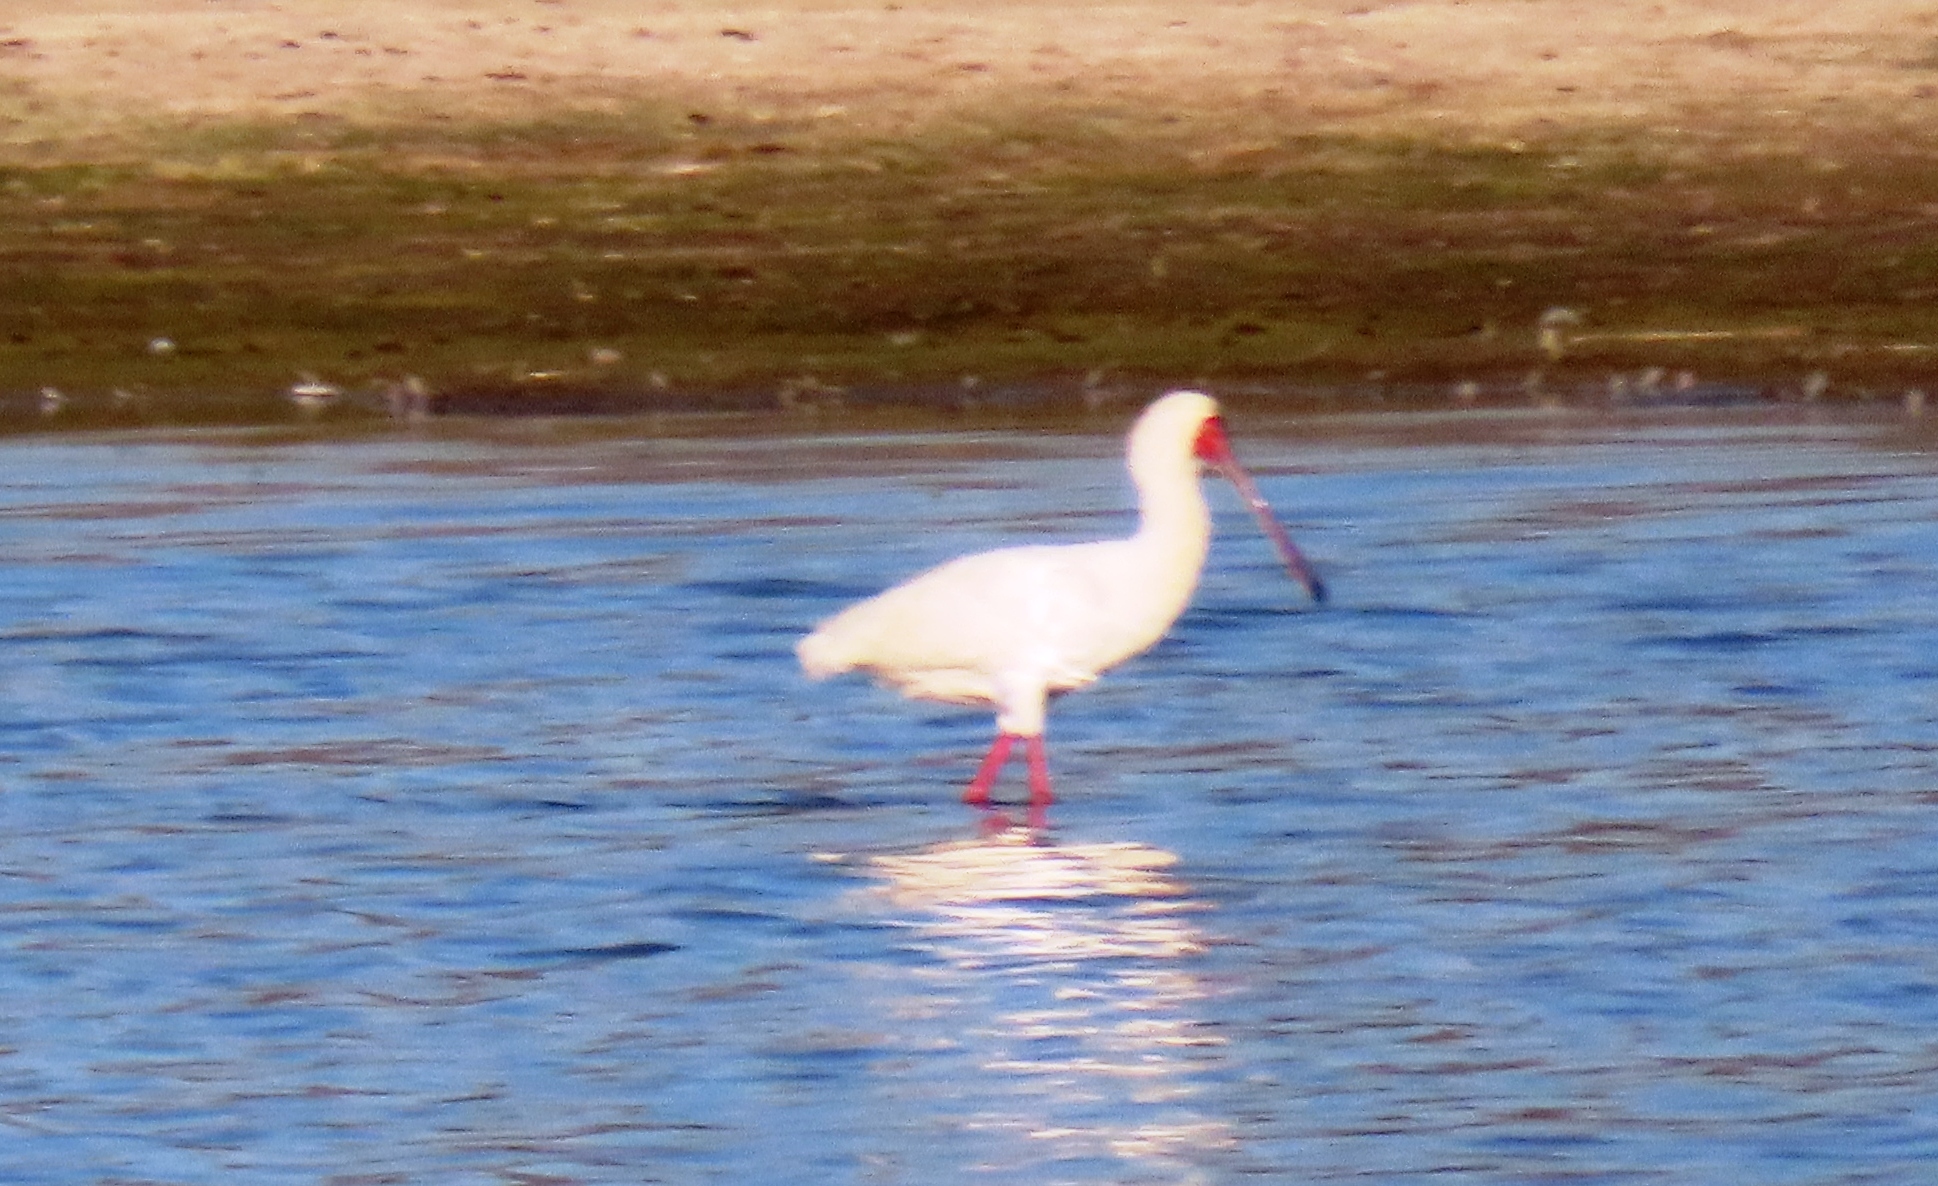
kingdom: Animalia
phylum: Chordata
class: Aves
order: Pelecaniformes
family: Threskiornithidae
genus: Platalea
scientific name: Platalea alba
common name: African spoonbill
